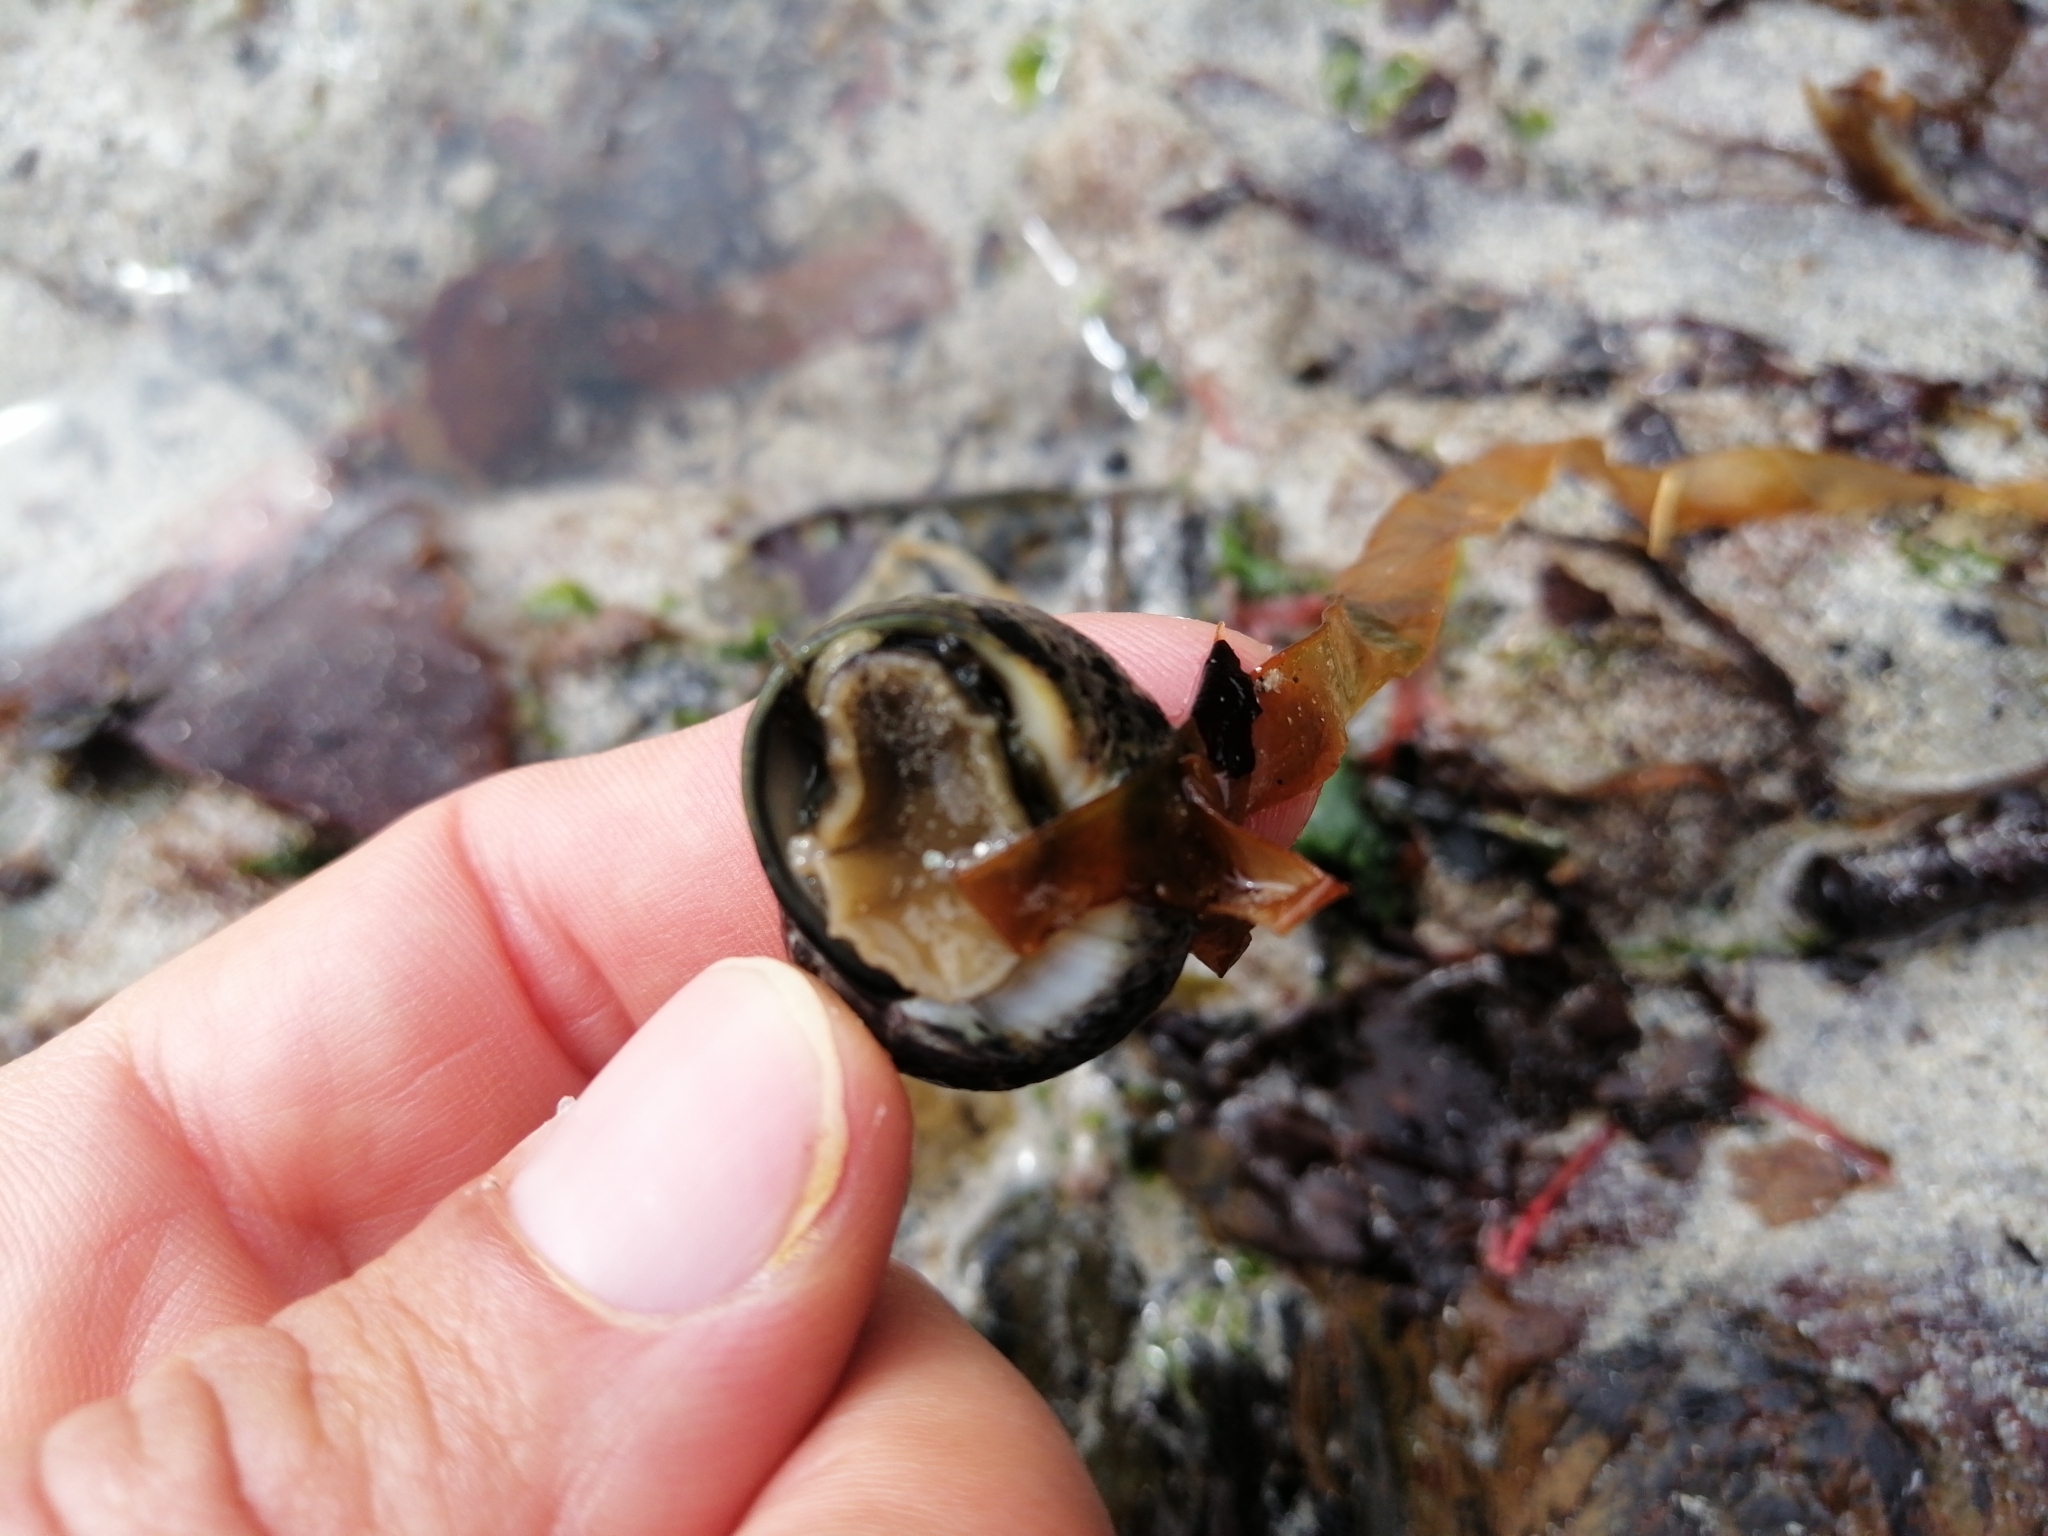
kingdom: Animalia
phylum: Mollusca
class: Gastropoda
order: Trochida
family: Trochidae
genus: Phorcus
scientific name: Phorcus lineatus
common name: Toothed top shell
